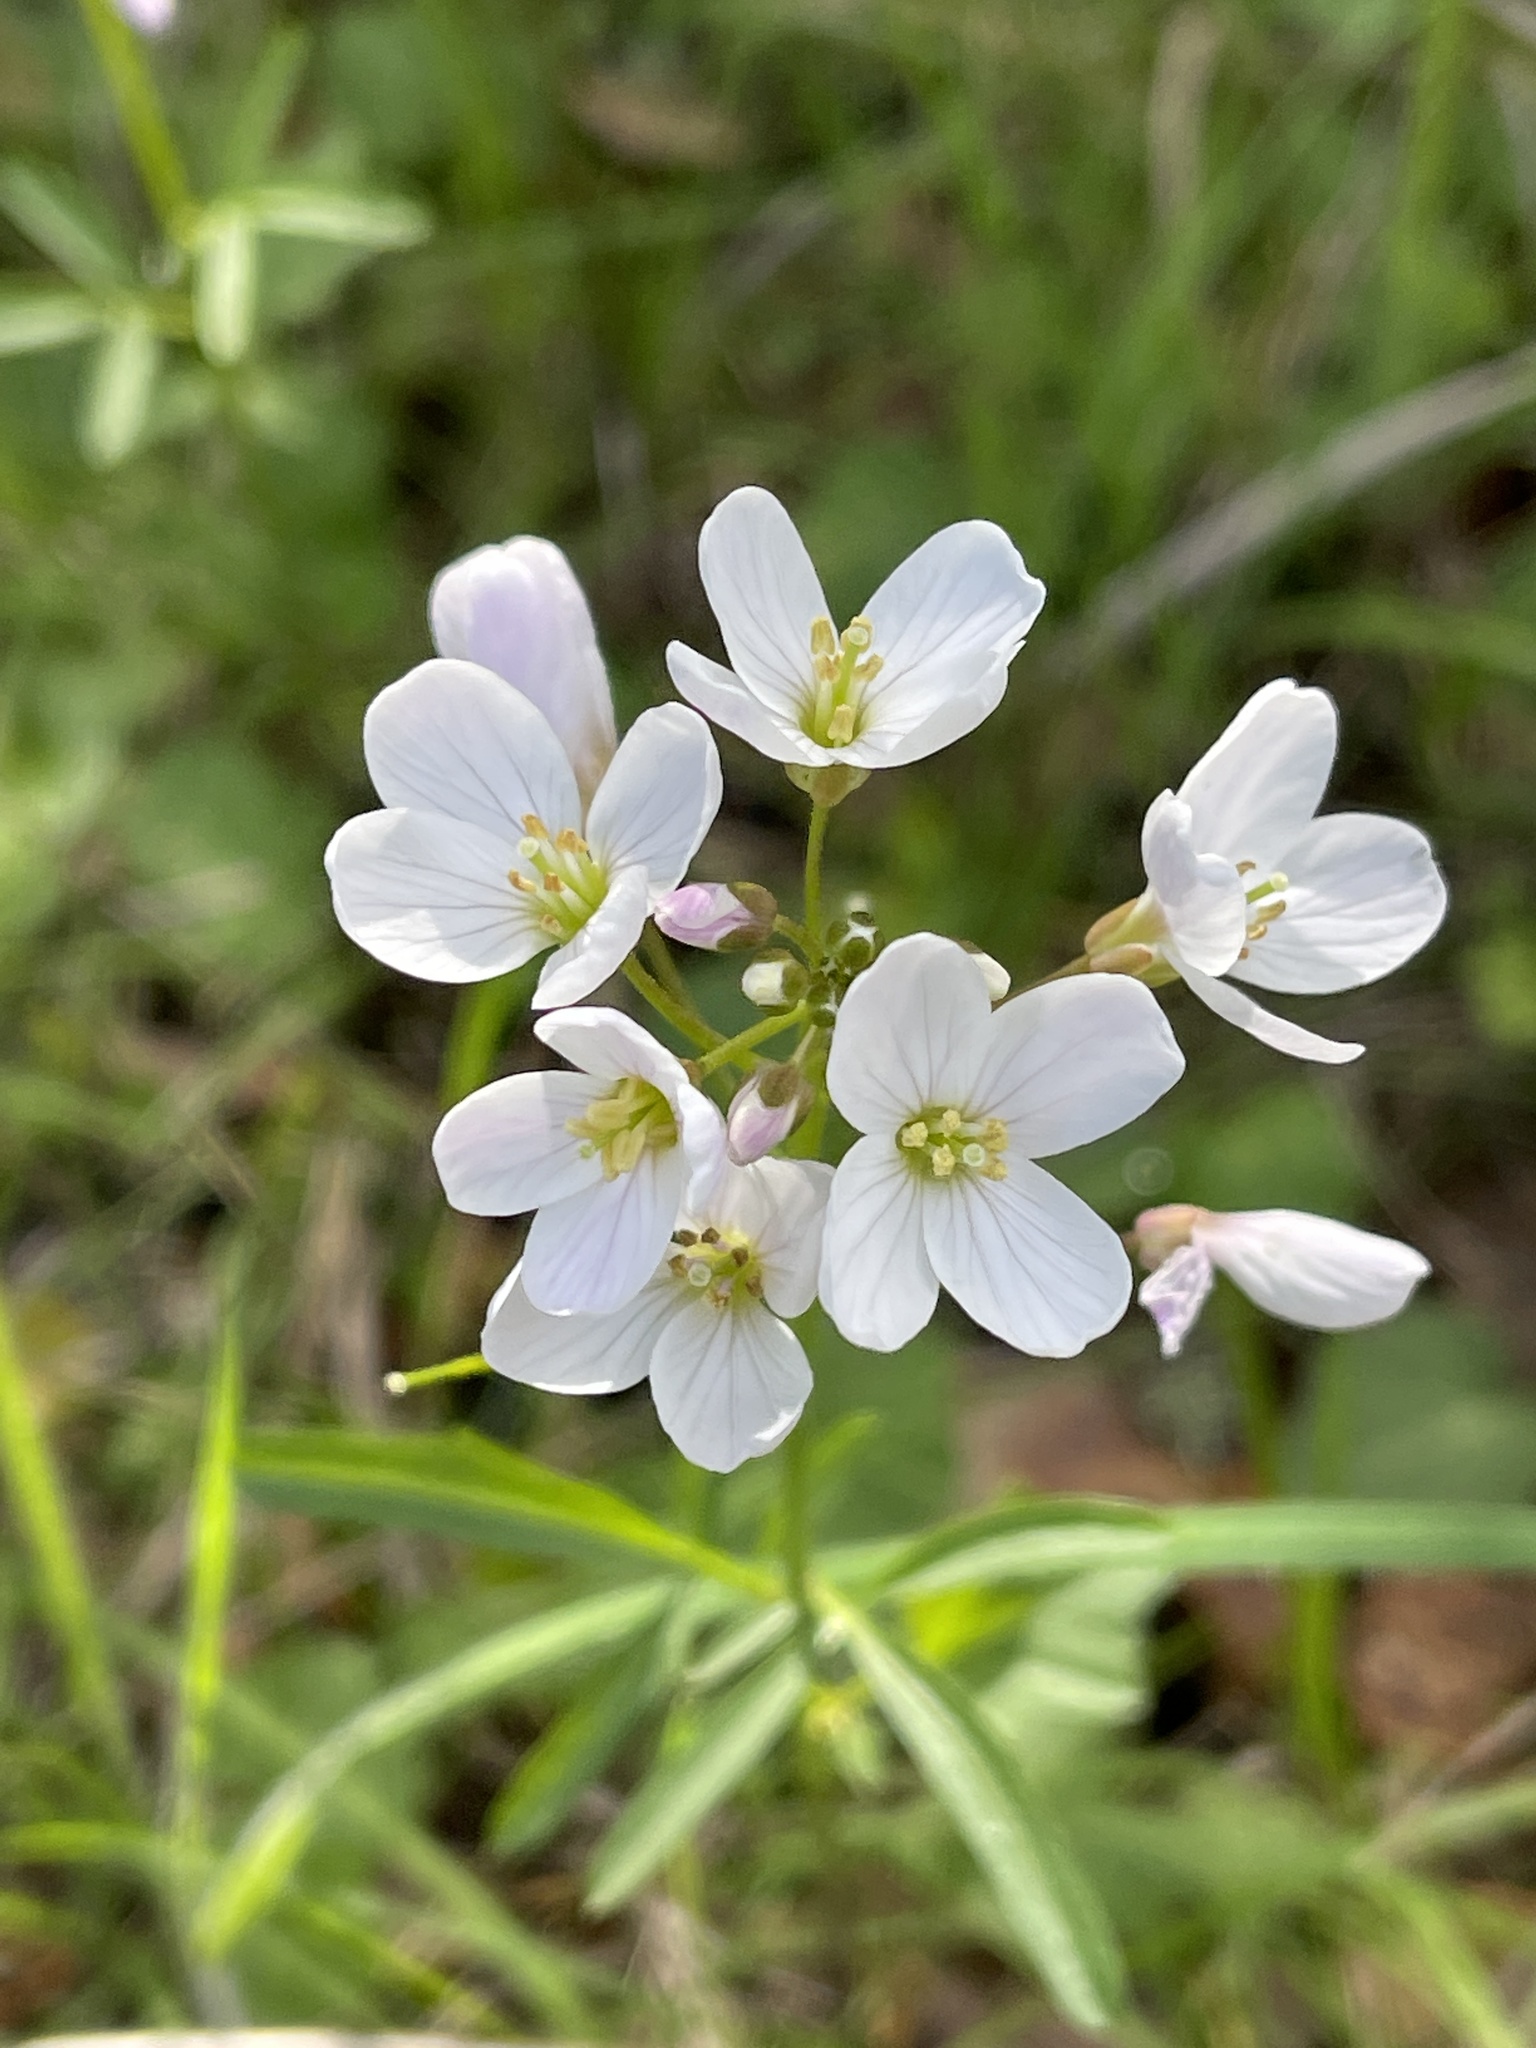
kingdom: Plantae
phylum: Tracheophyta
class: Magnoliopsida
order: Brassicales
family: Brassicaceae
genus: Cardamine
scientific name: Cardamine californica
